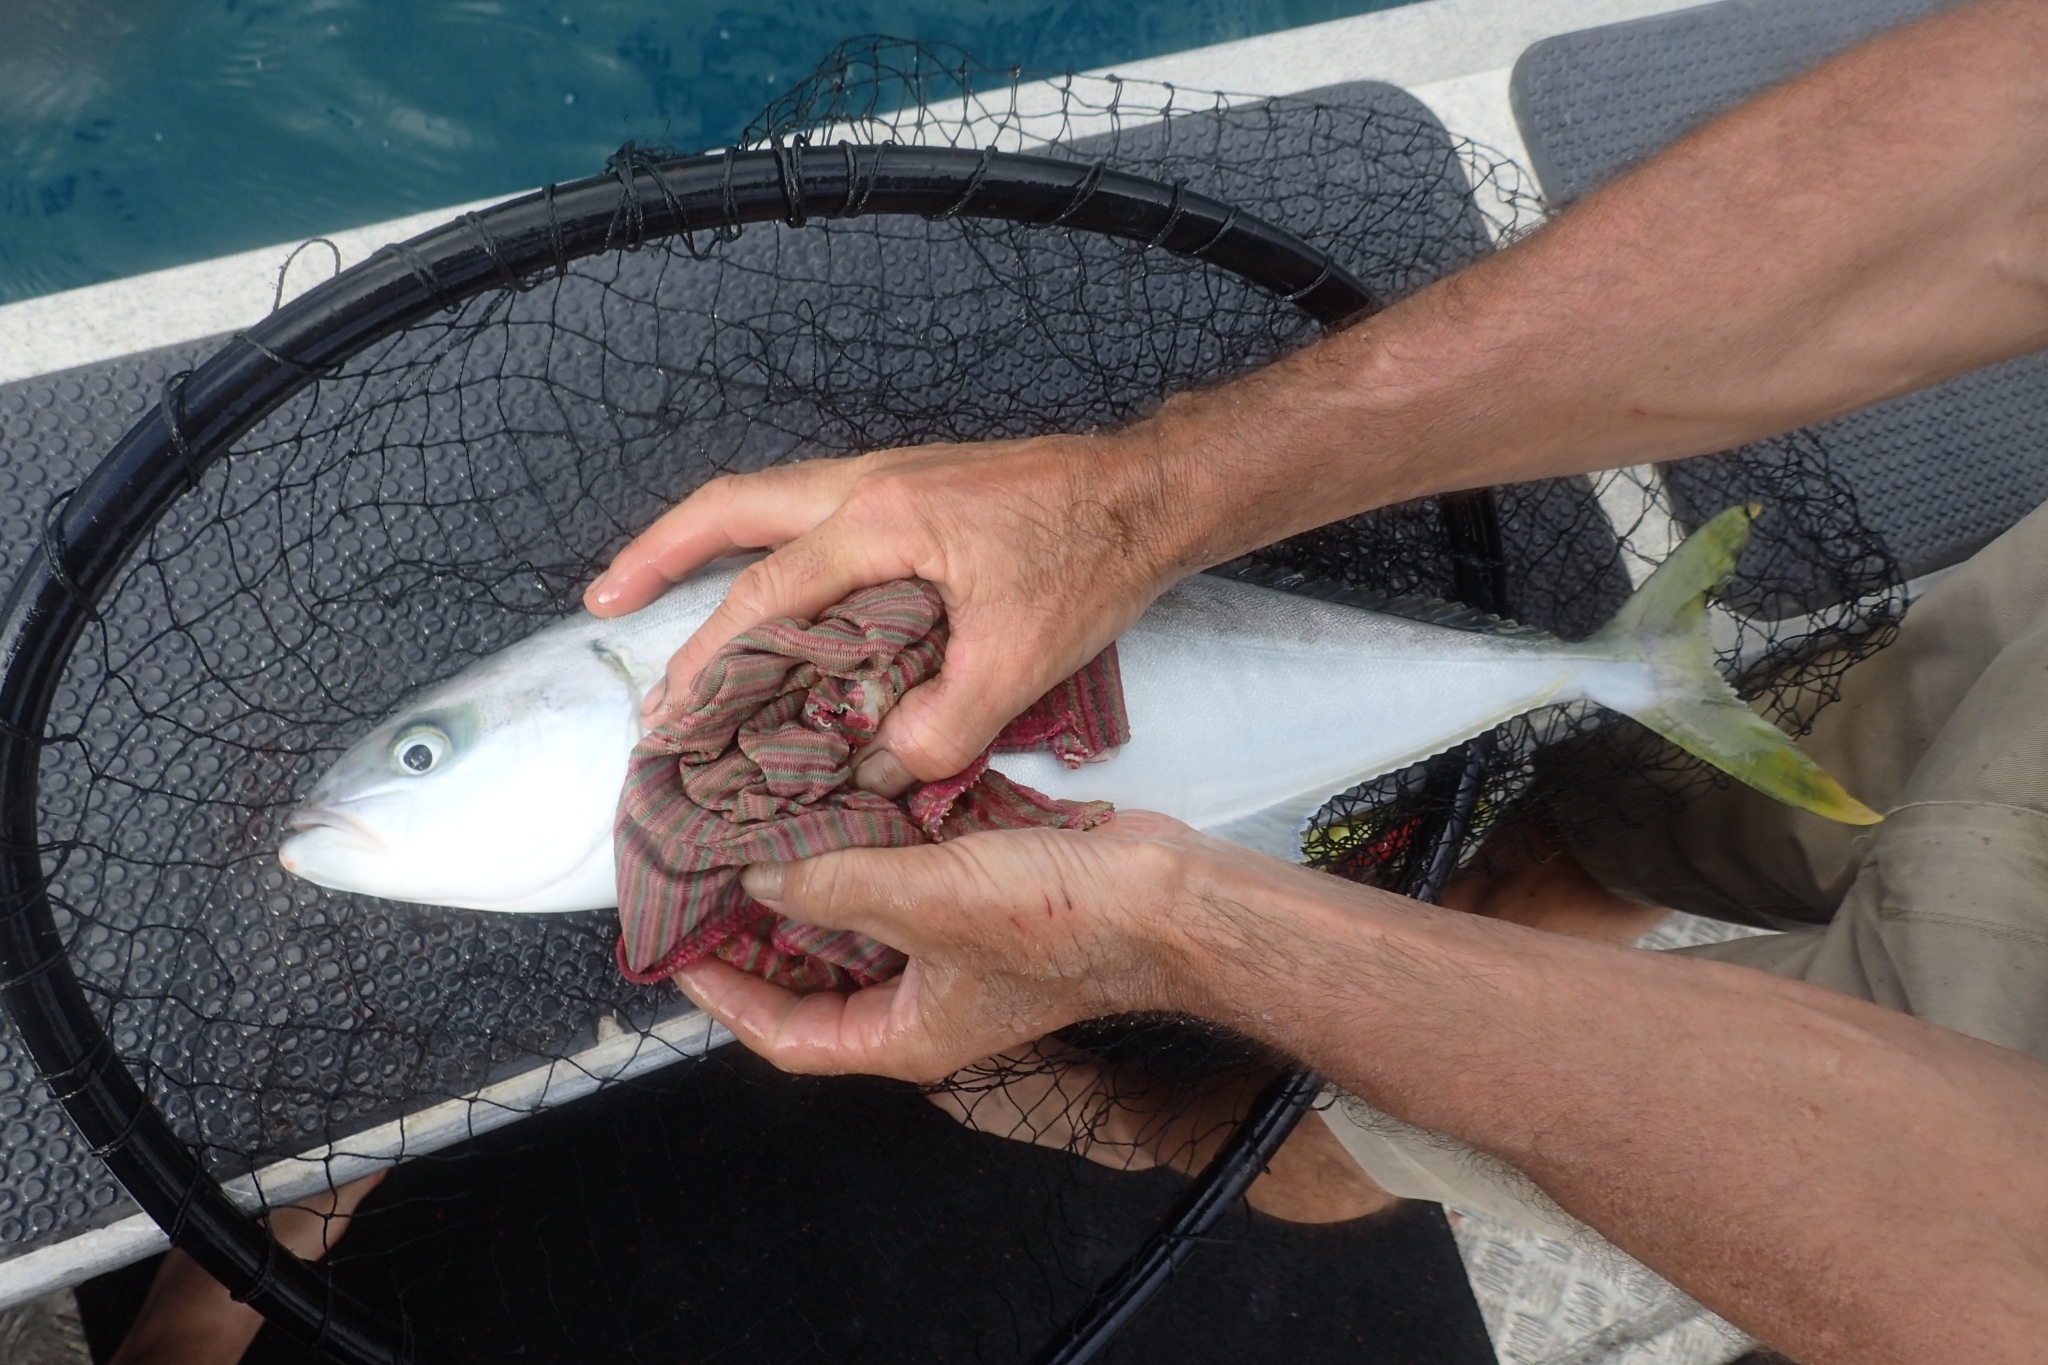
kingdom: Animalia
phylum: Chordata
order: Perciformes
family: Carangidae
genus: Seriola
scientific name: Seriola lalandi
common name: Yellowtail kingfish
